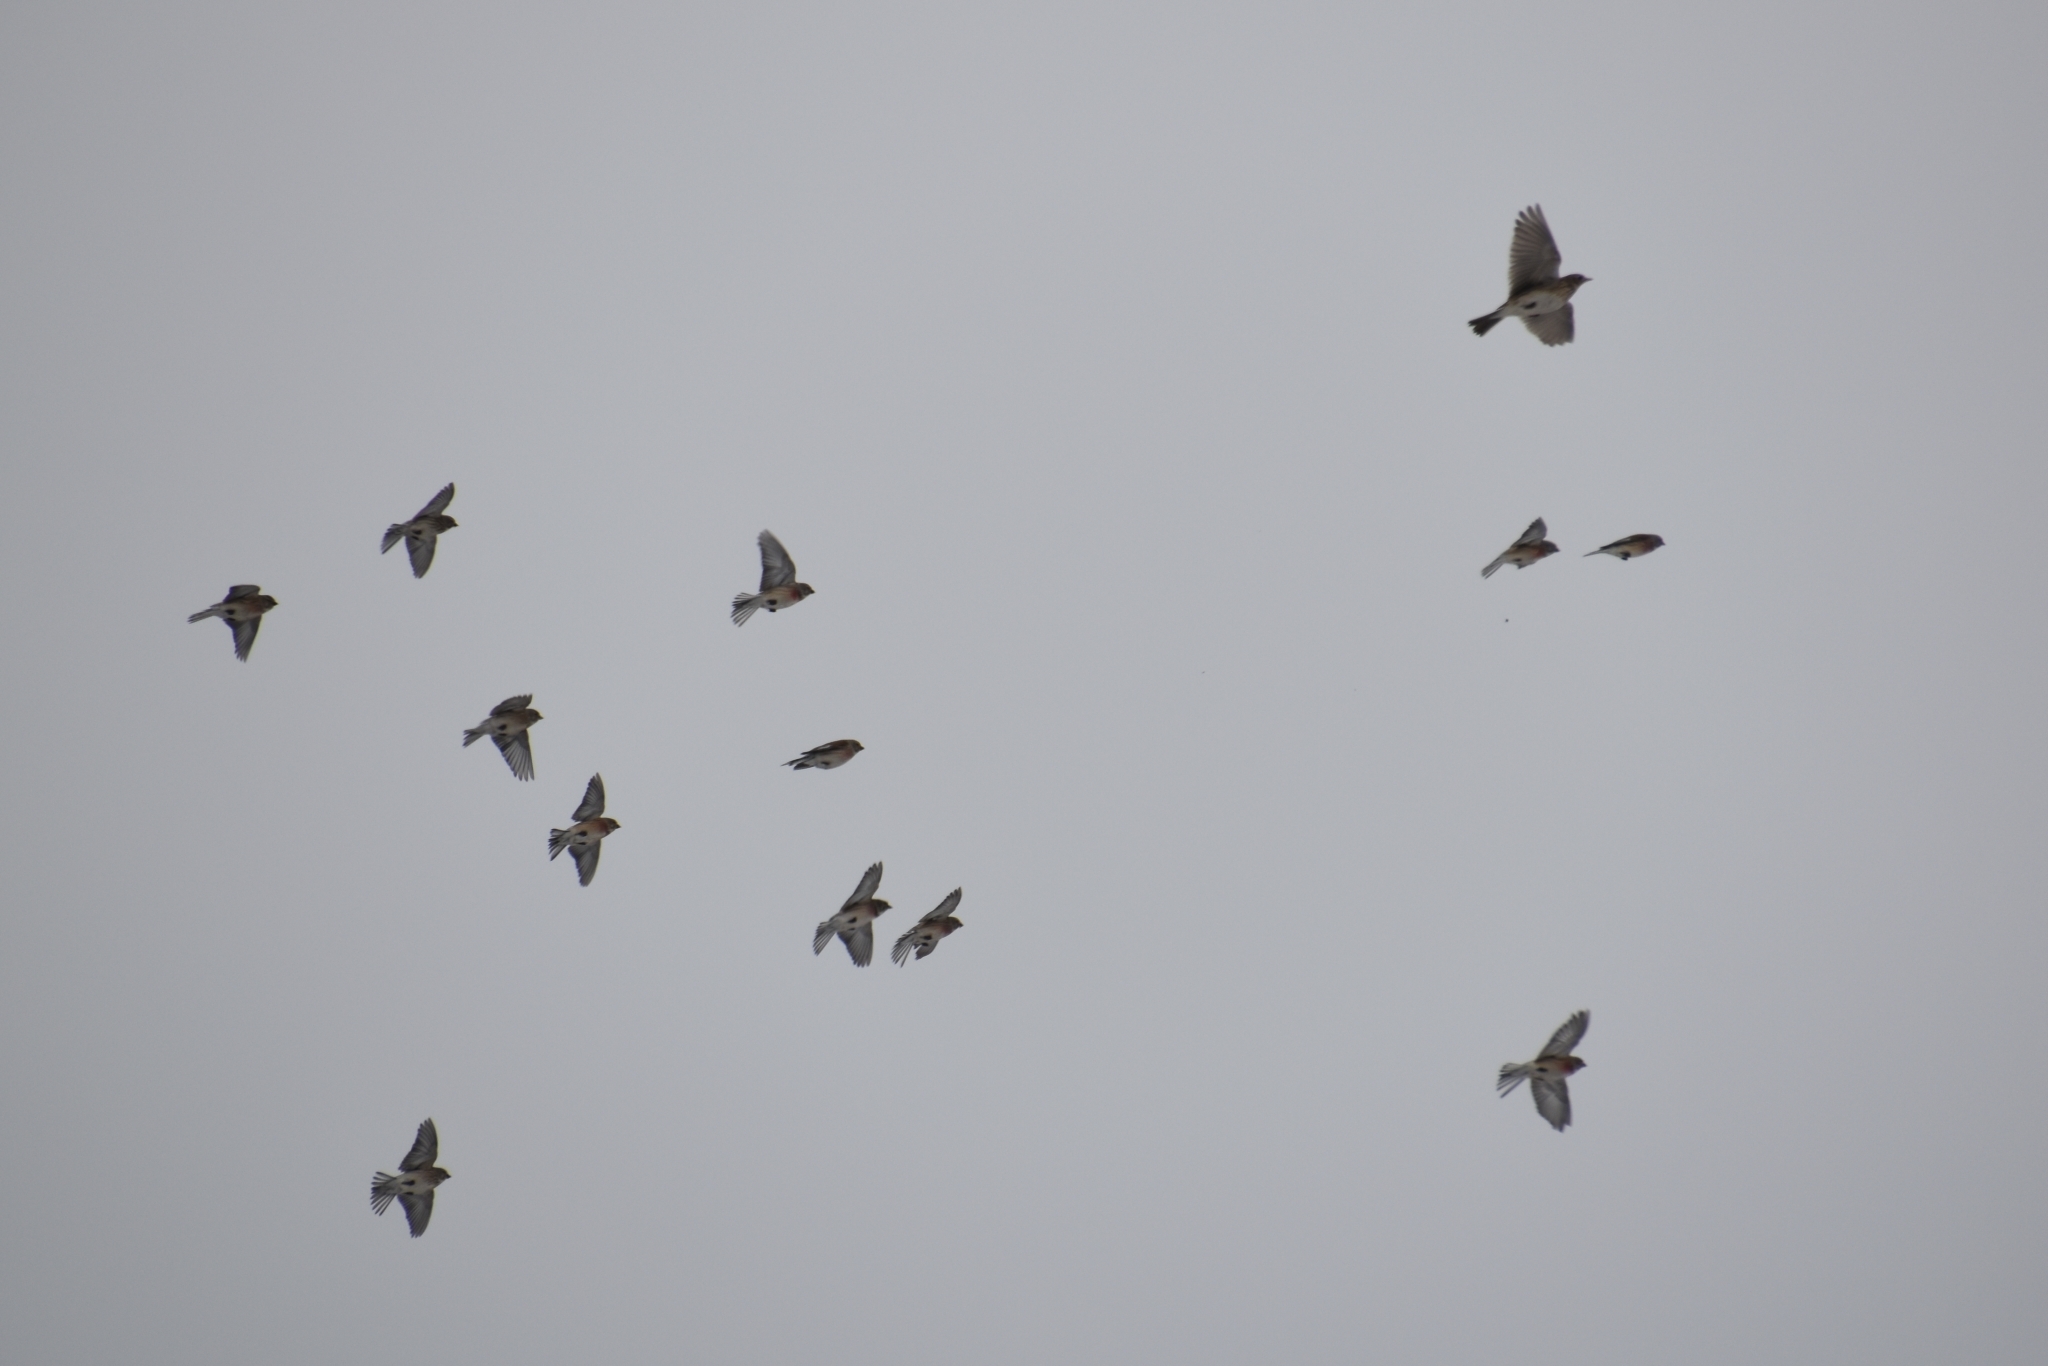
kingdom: Animalia
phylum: Chordata
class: Aves
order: Passeriformes
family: Fringillidae
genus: Linaria
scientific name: Linaria cannabina
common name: Common linnet
